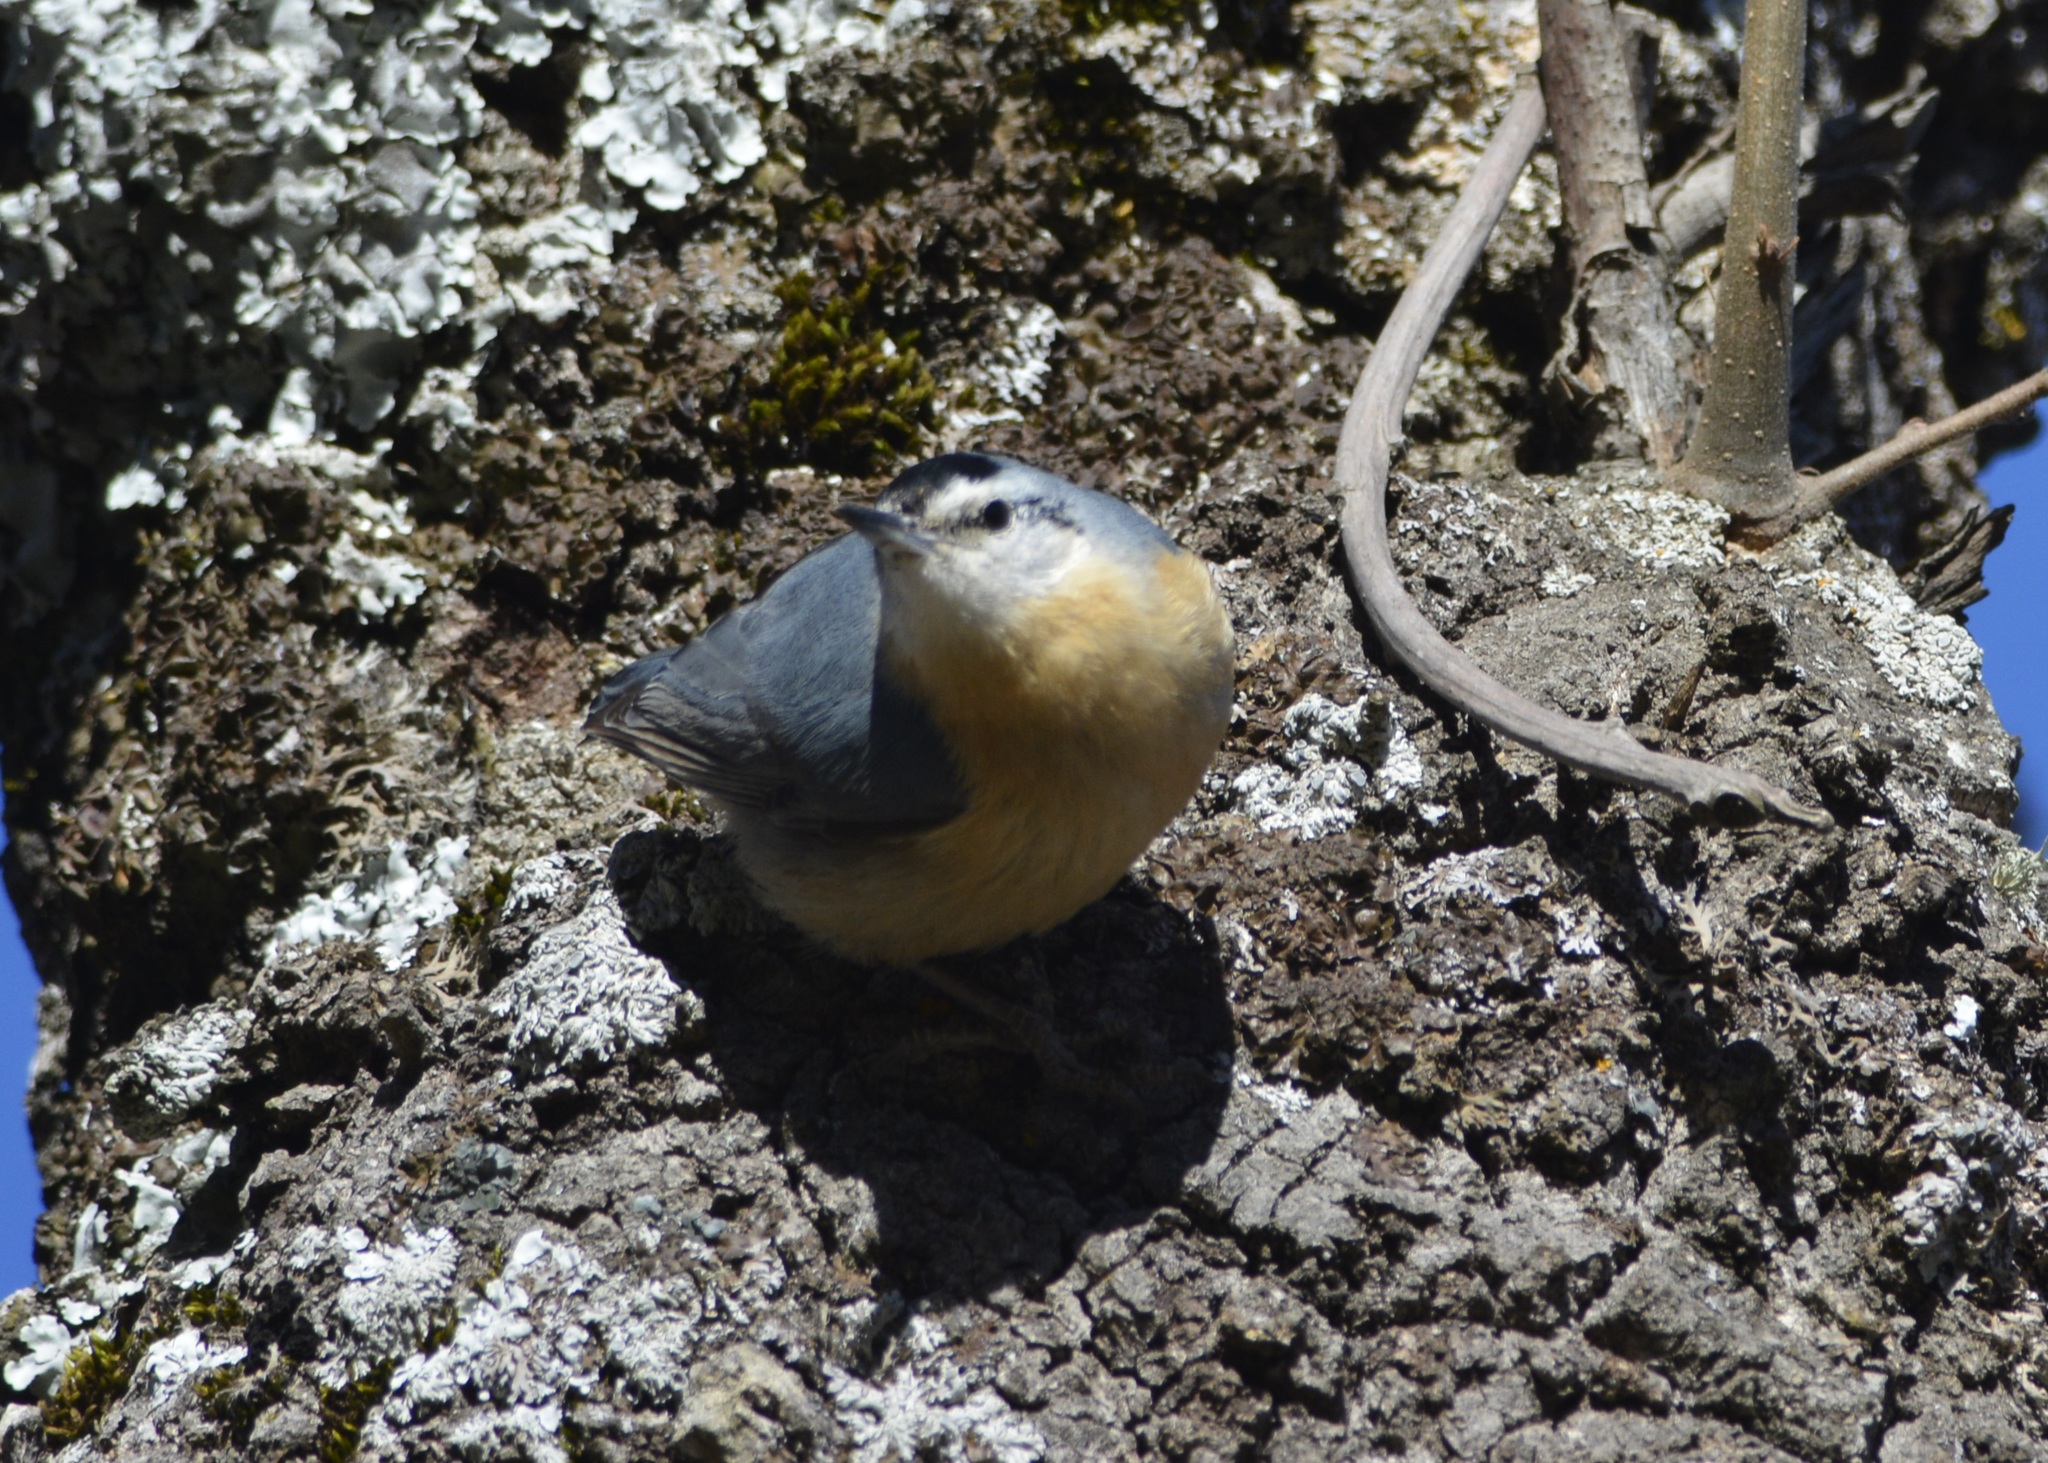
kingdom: Animalia
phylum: Chordata
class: Aves
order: Passeriformes
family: Sittidae
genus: Sitta
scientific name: Sitta ledanti
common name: Algerian nuthatch
